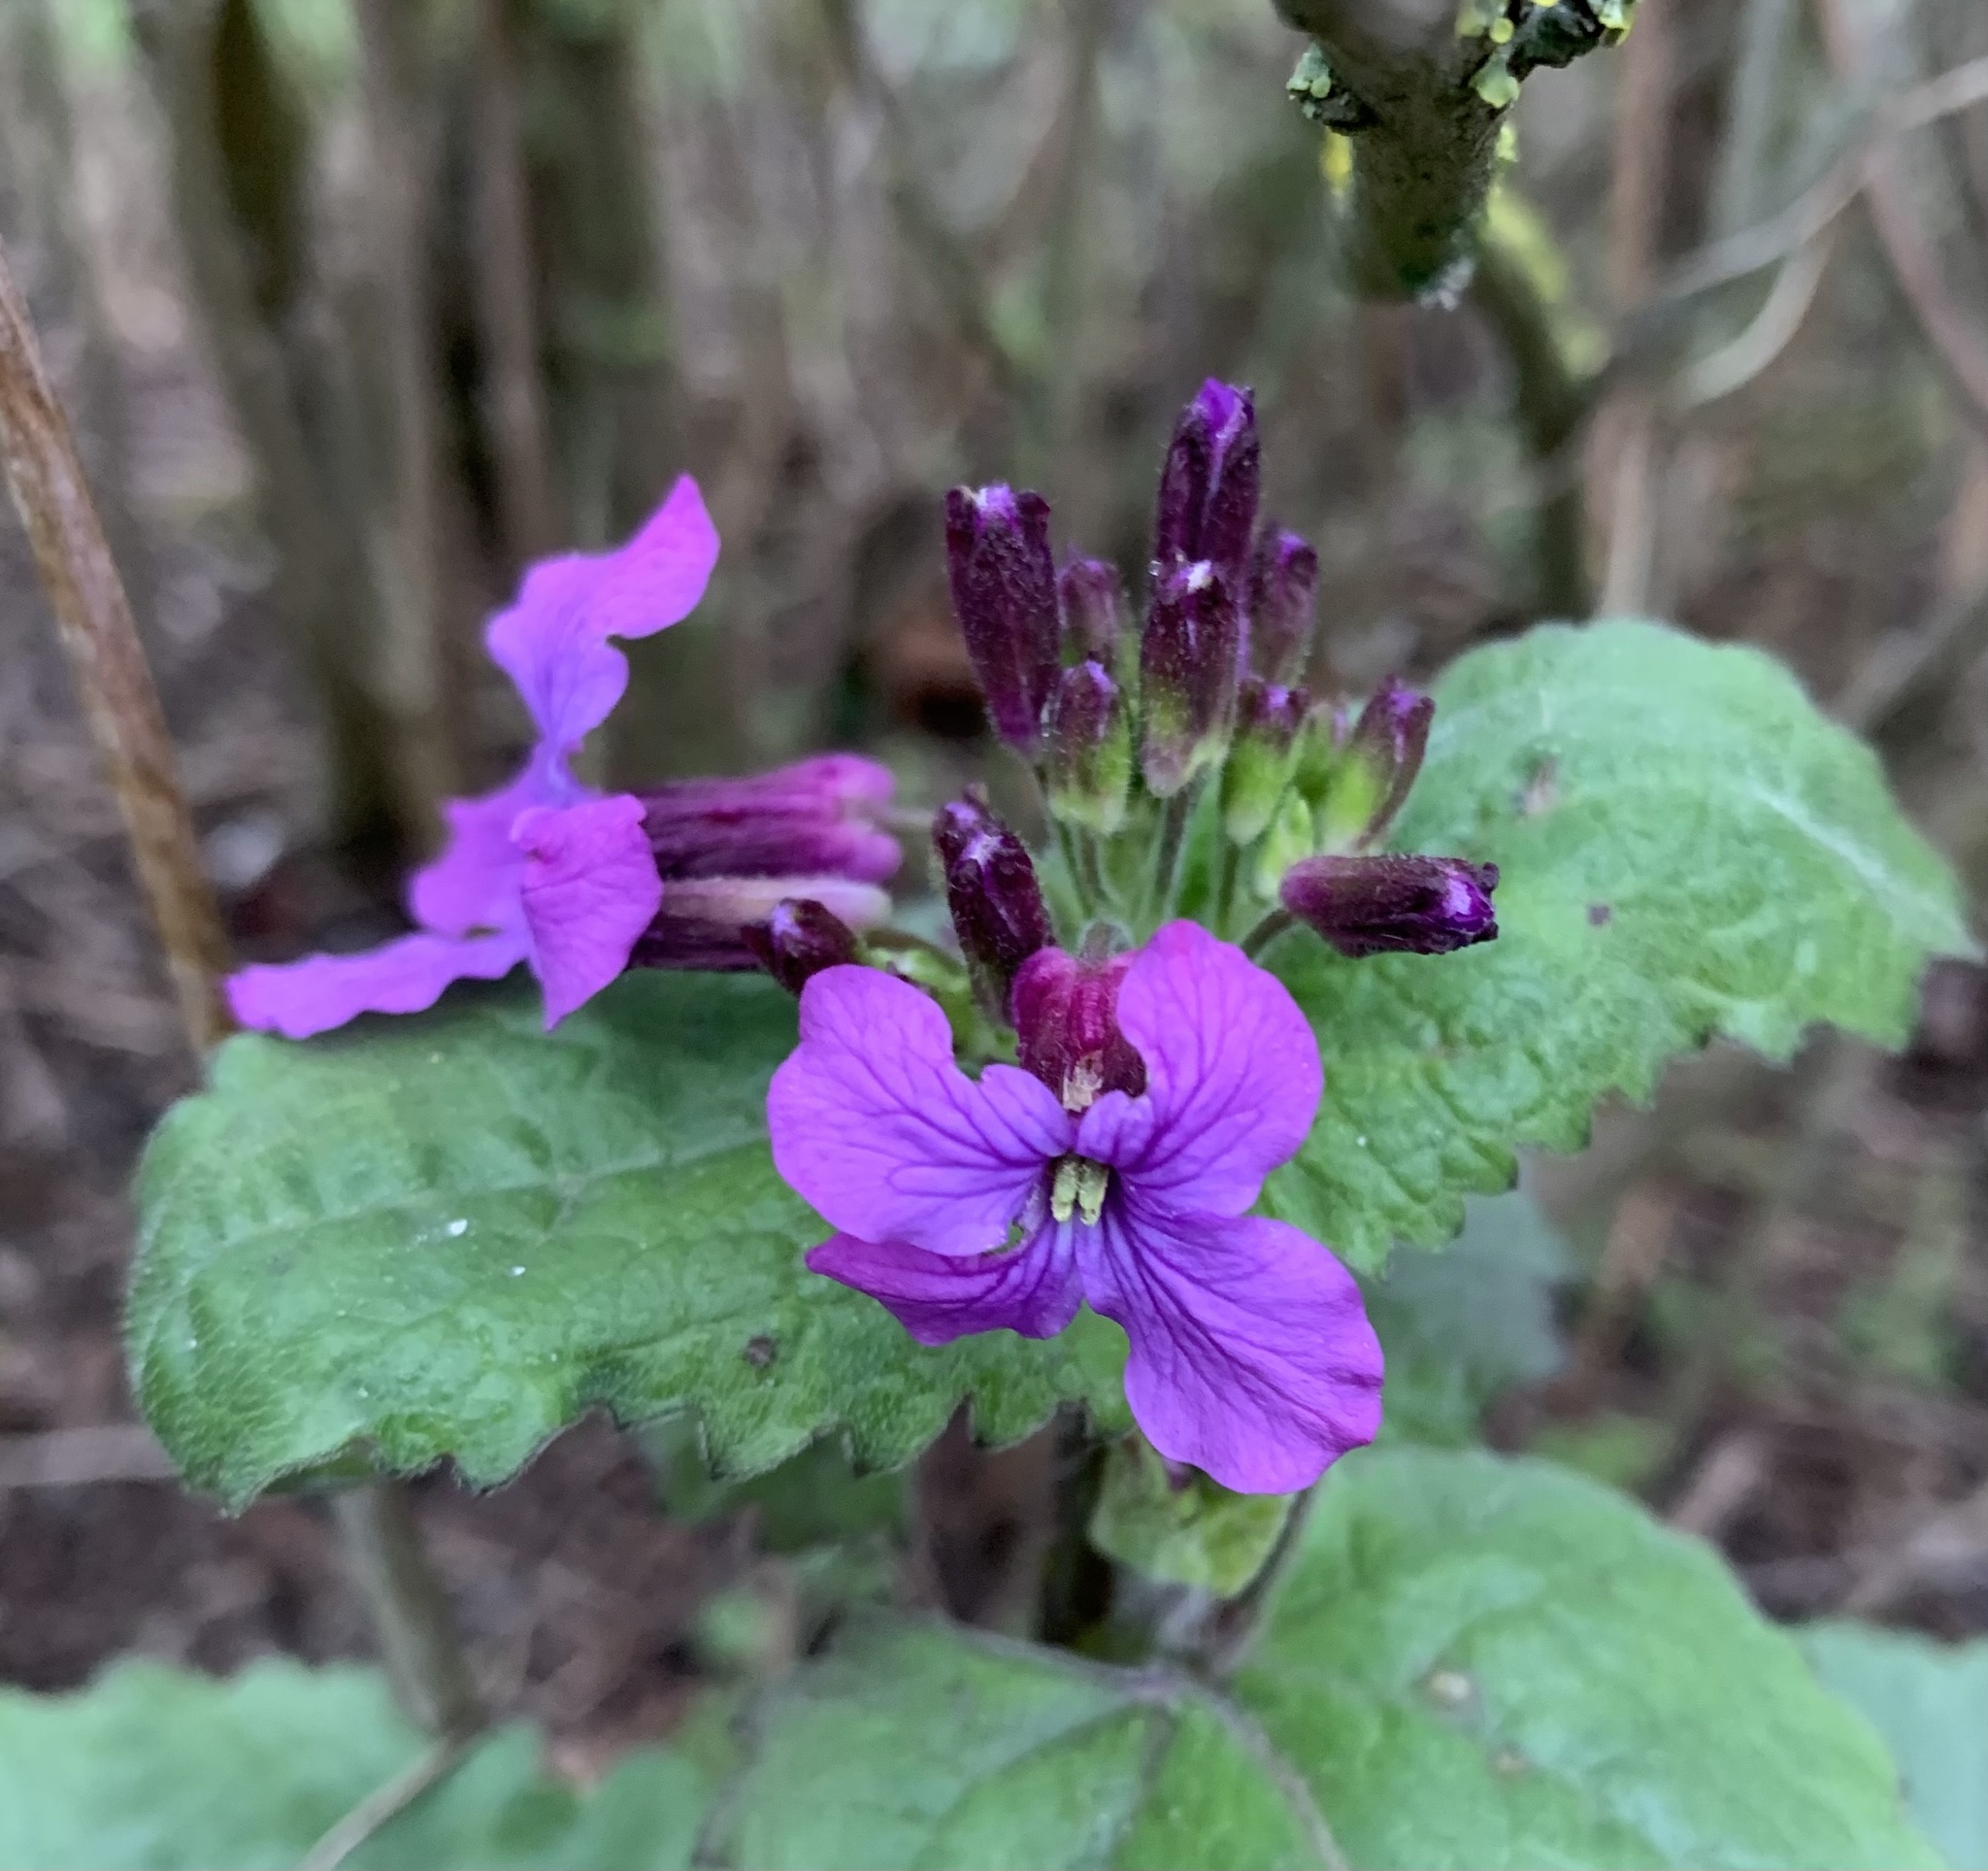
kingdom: Plantae
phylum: Tracheophyta
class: Magnoliopsida
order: Brassicales
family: Brassicaceae
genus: Lunaria
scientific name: Lunaria annua
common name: Honesty
